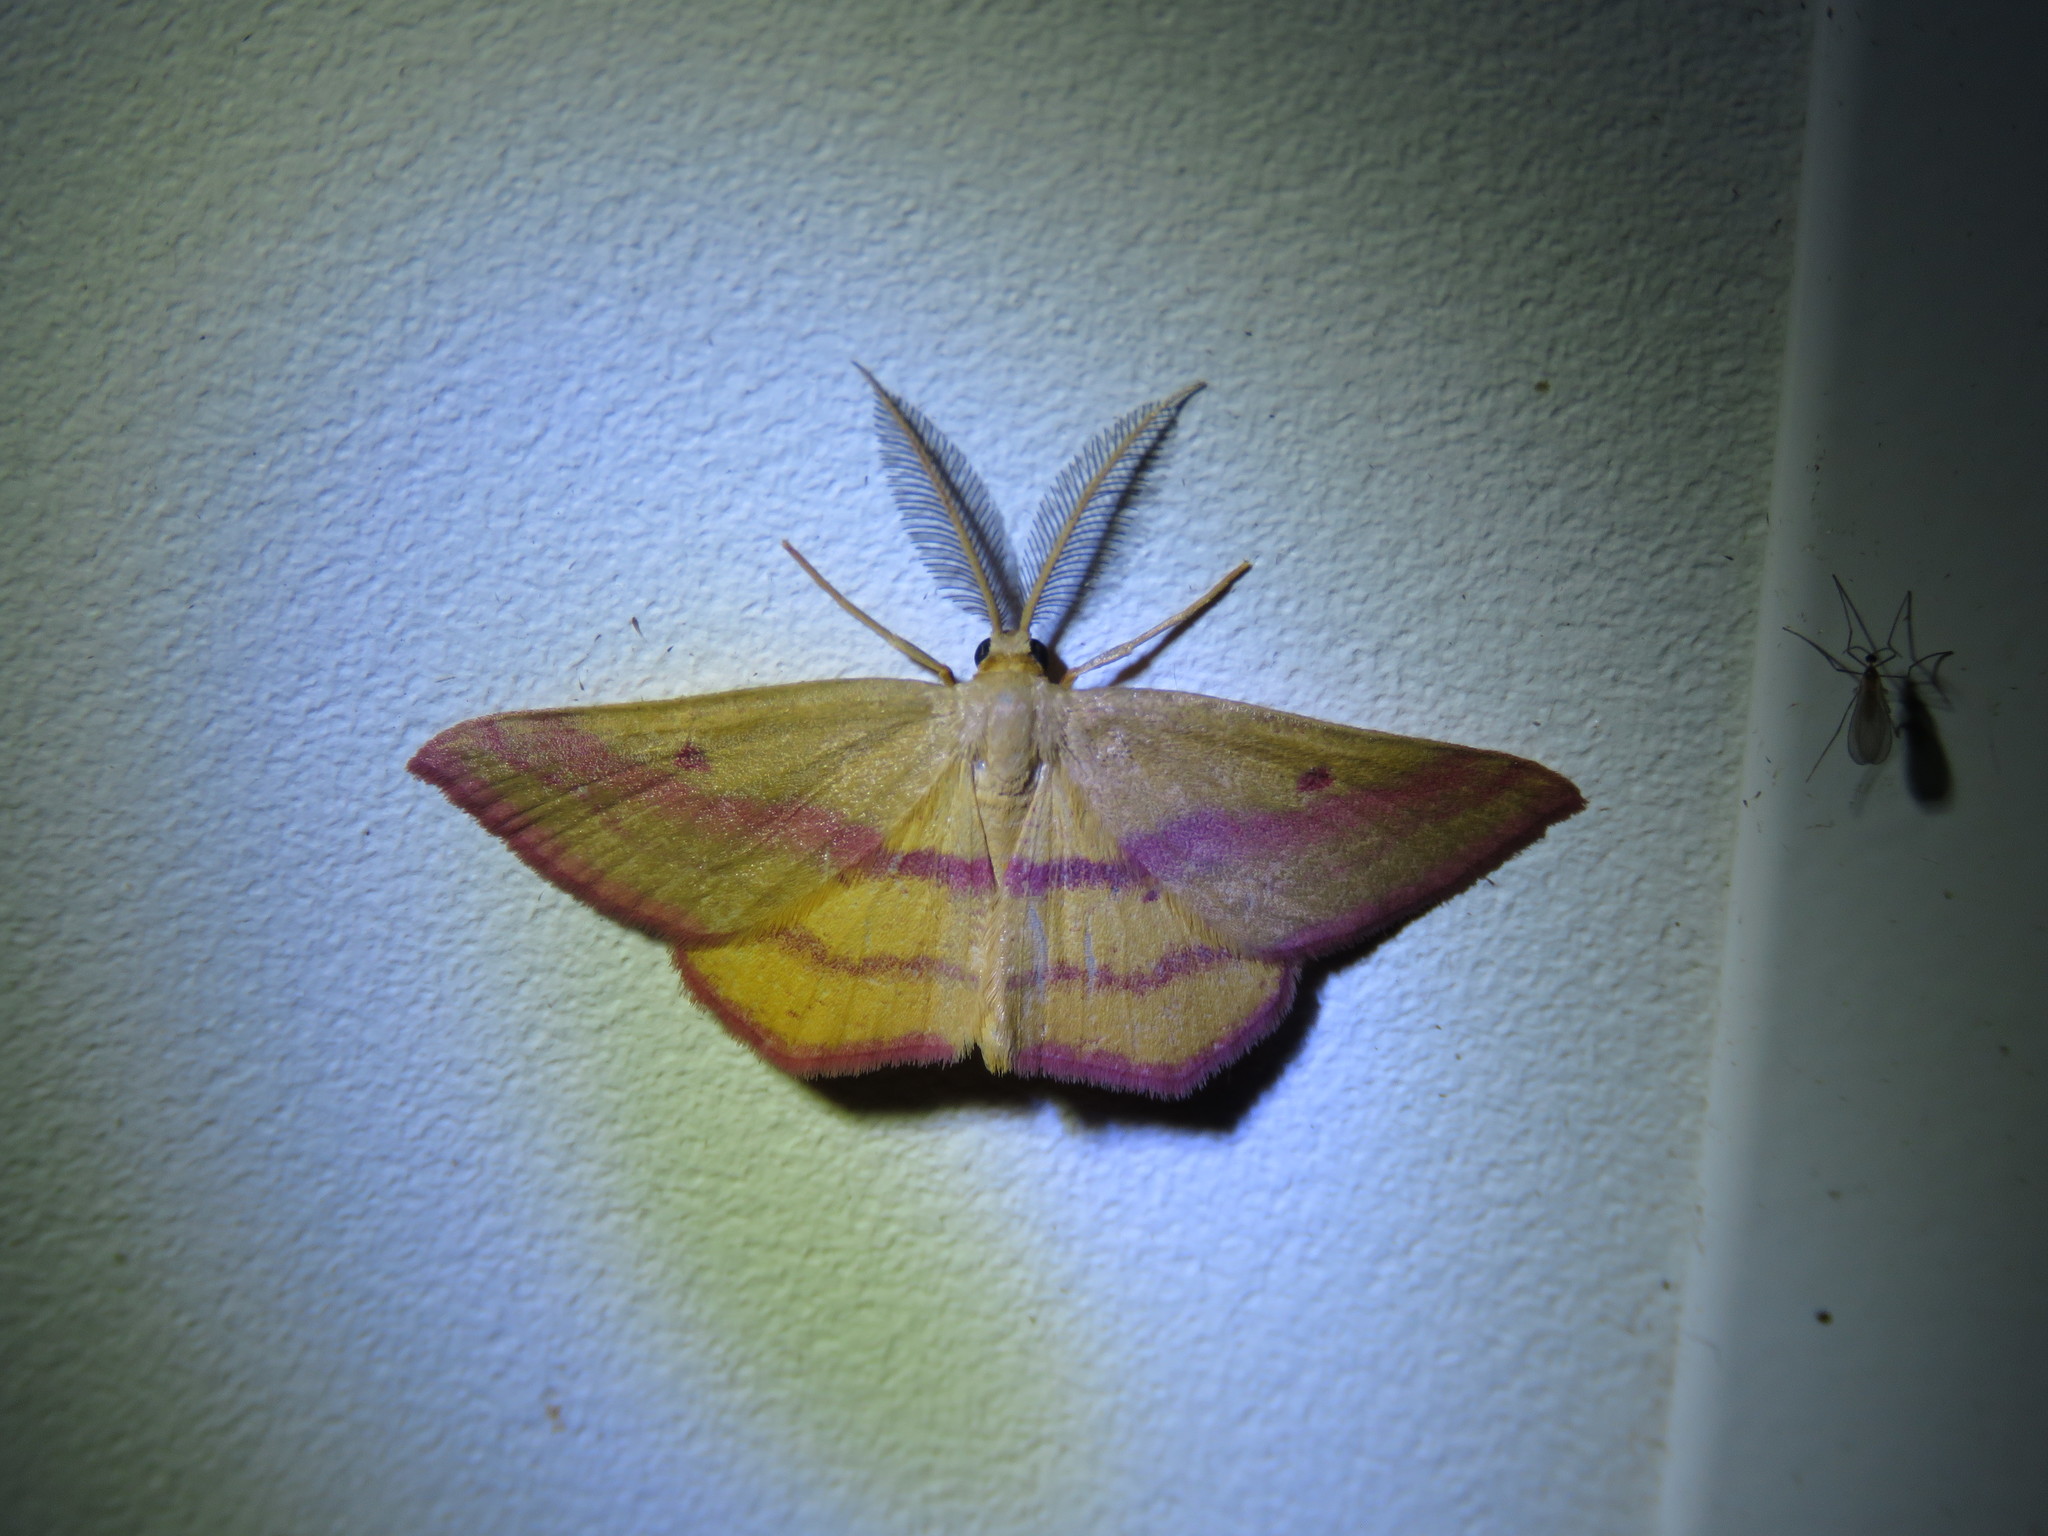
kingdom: Animalia
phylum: Arthropoda
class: Insecta
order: Lepidoptera
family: Geometridae
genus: Haematopis
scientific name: Haematopis grataria
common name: Chickweed geometer
